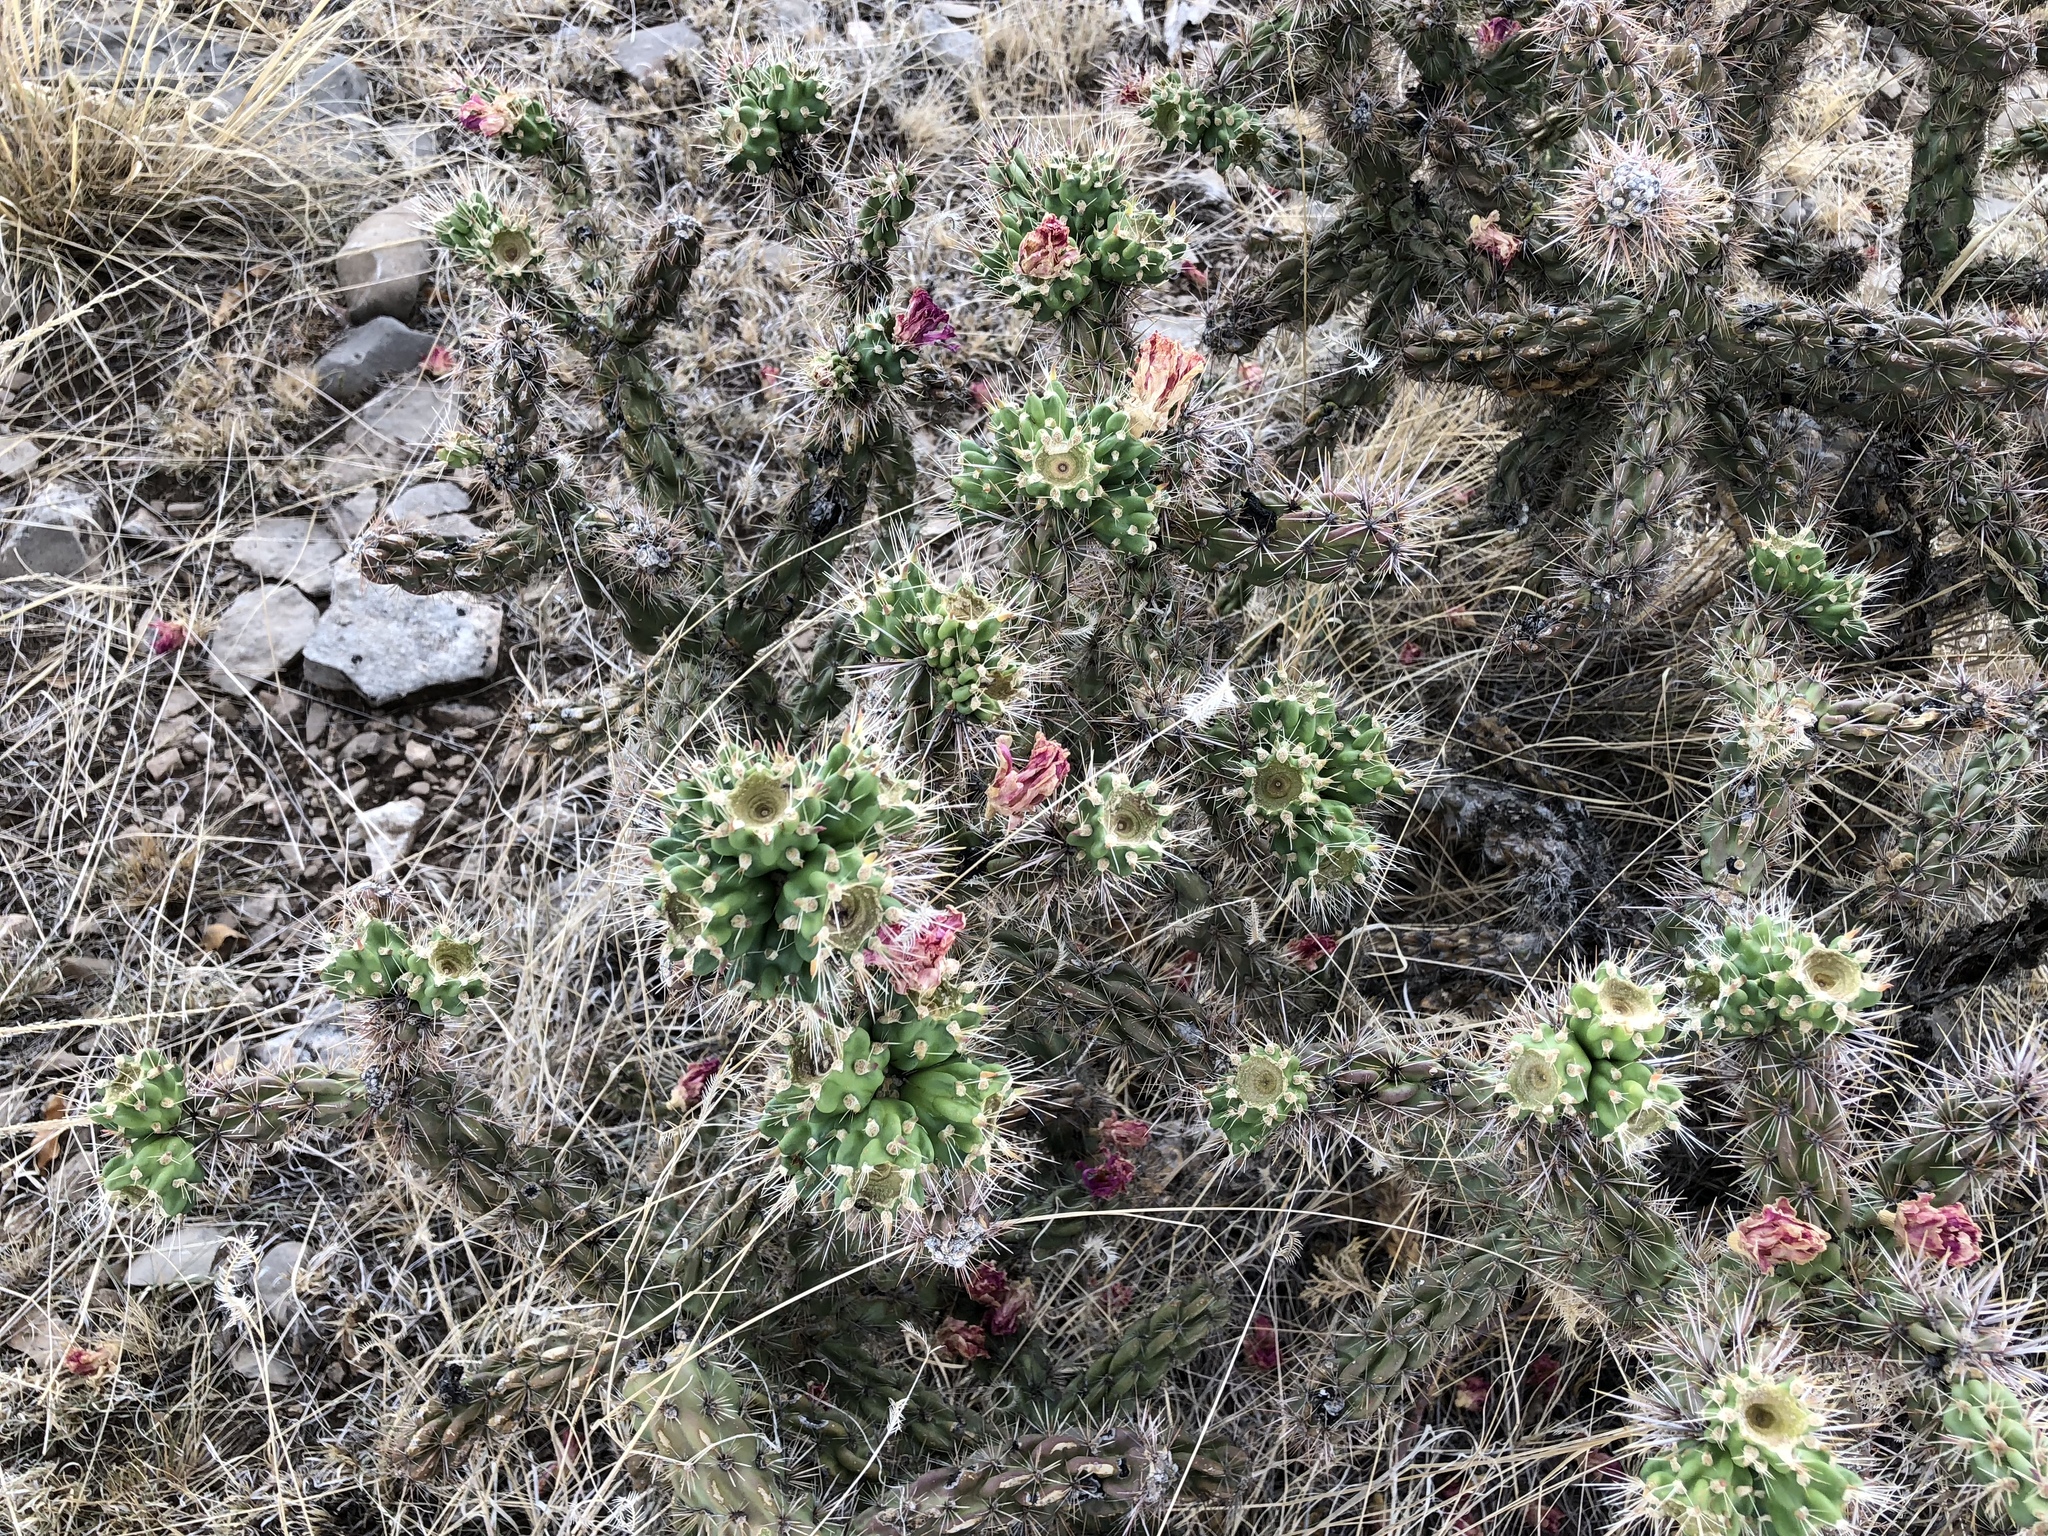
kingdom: Plantae
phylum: Tracheophyta
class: Magnoliopsida
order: Caryophyllales
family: Cactaceae
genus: Cylindropuntia
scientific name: Cylindropuntia imbricata
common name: Candelabrum cactus
